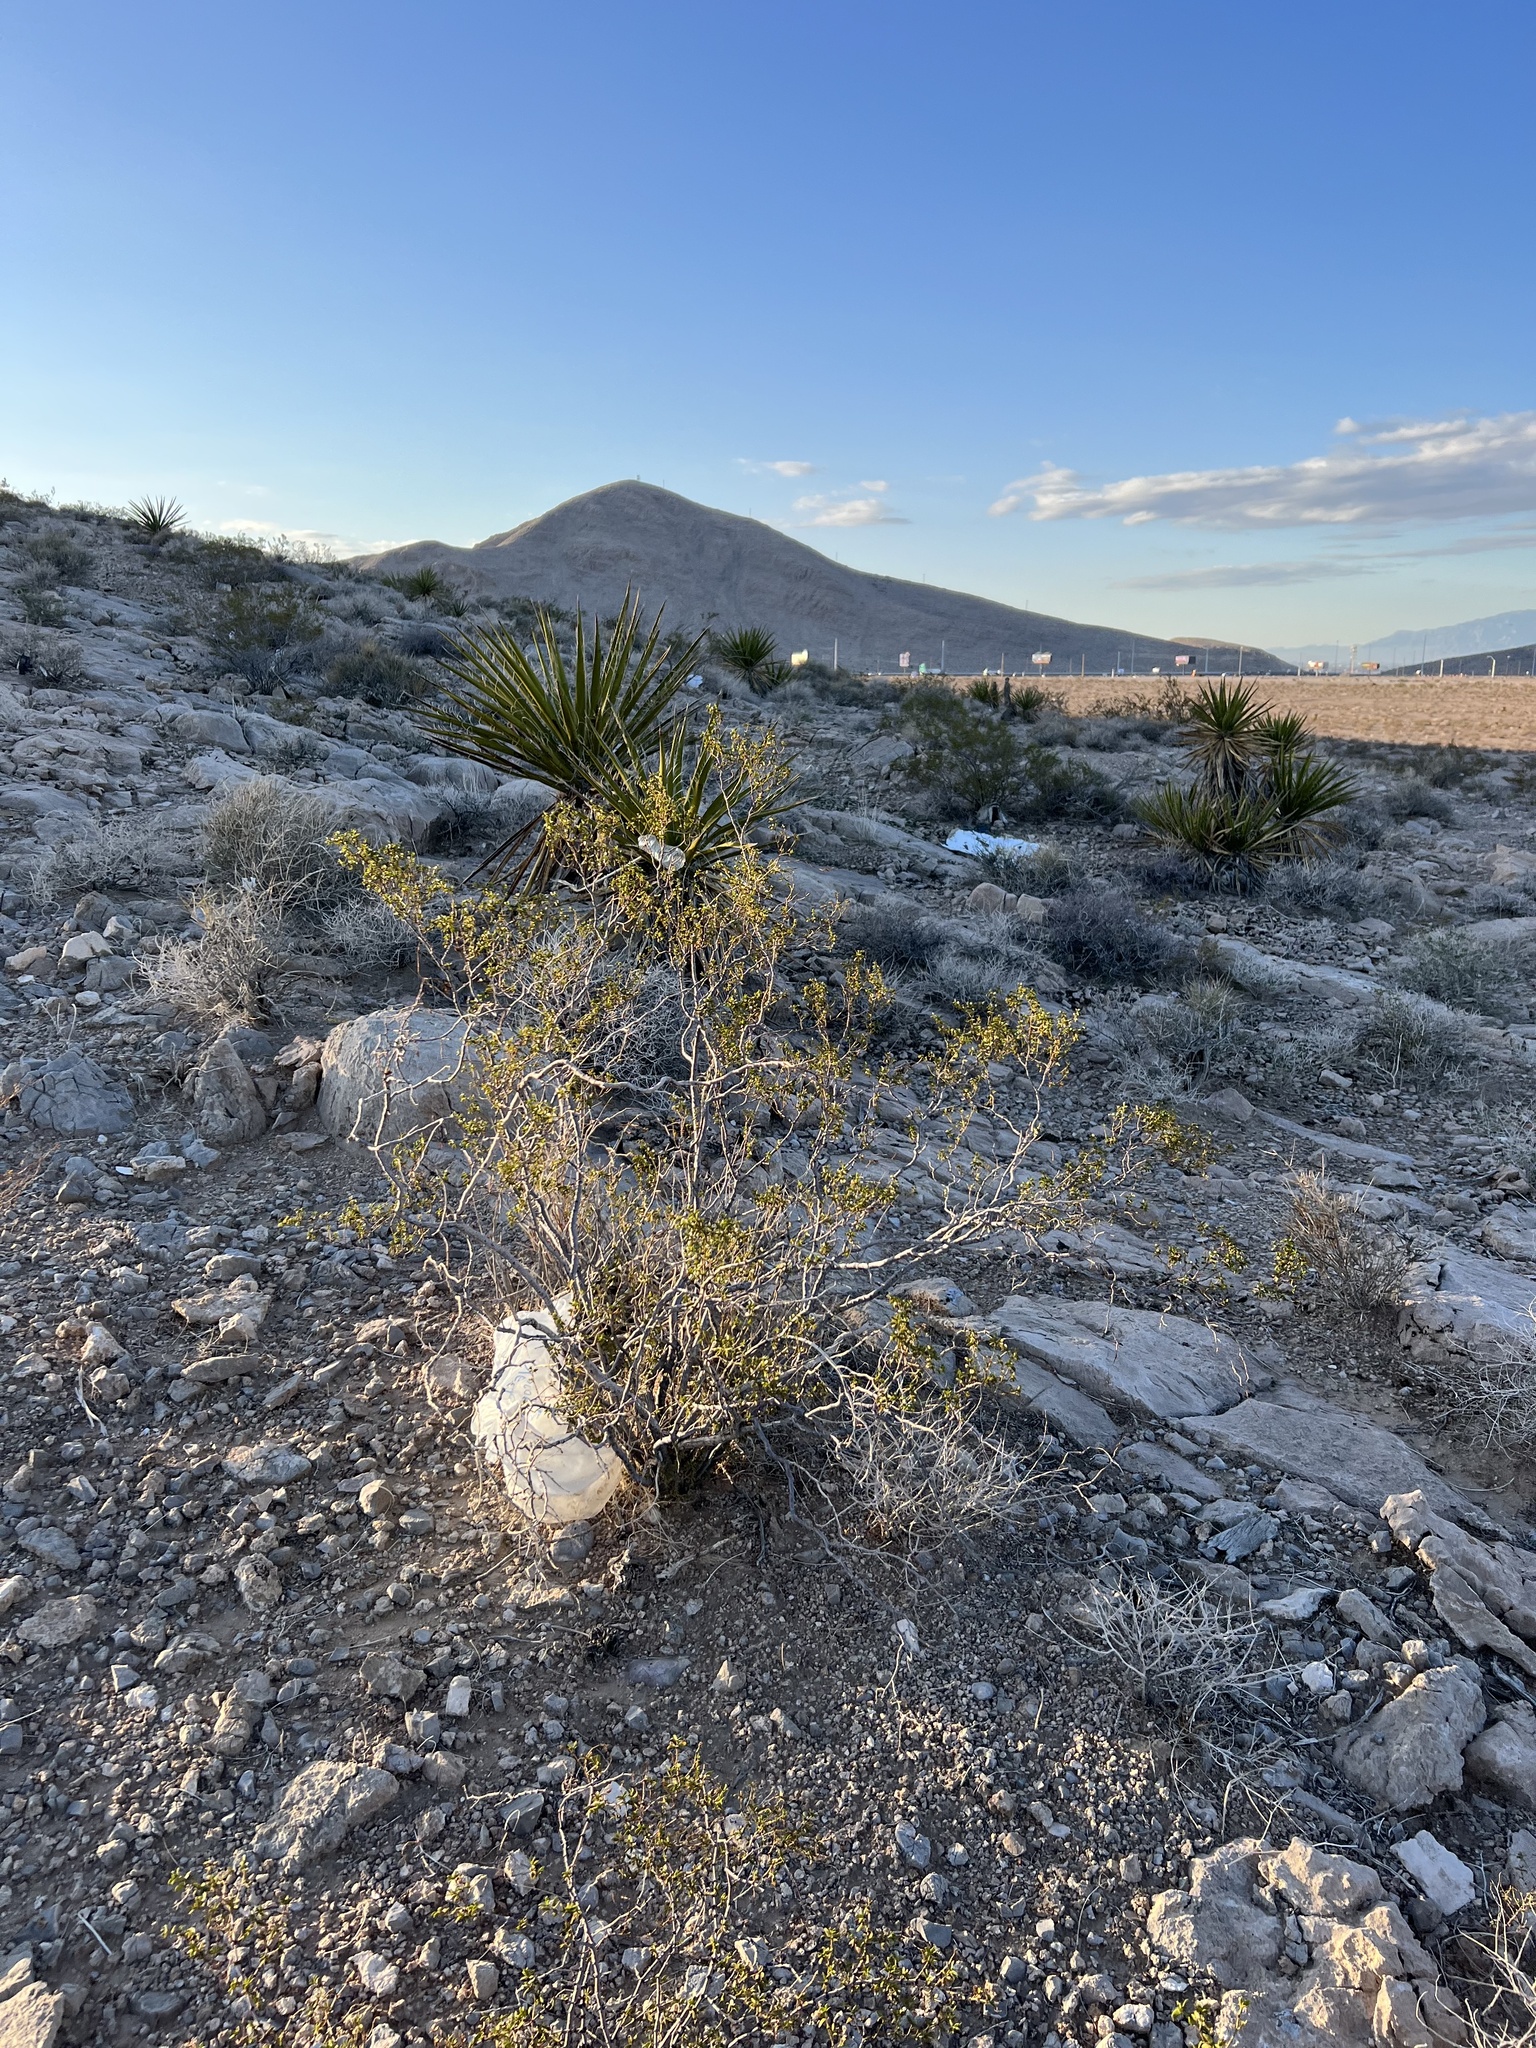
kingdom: Plantae
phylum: Tracheophyta
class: Magnoliopsida
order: Zygophyllales
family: Zygophyllaceae
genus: Larrea
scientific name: Larrea tridentata
